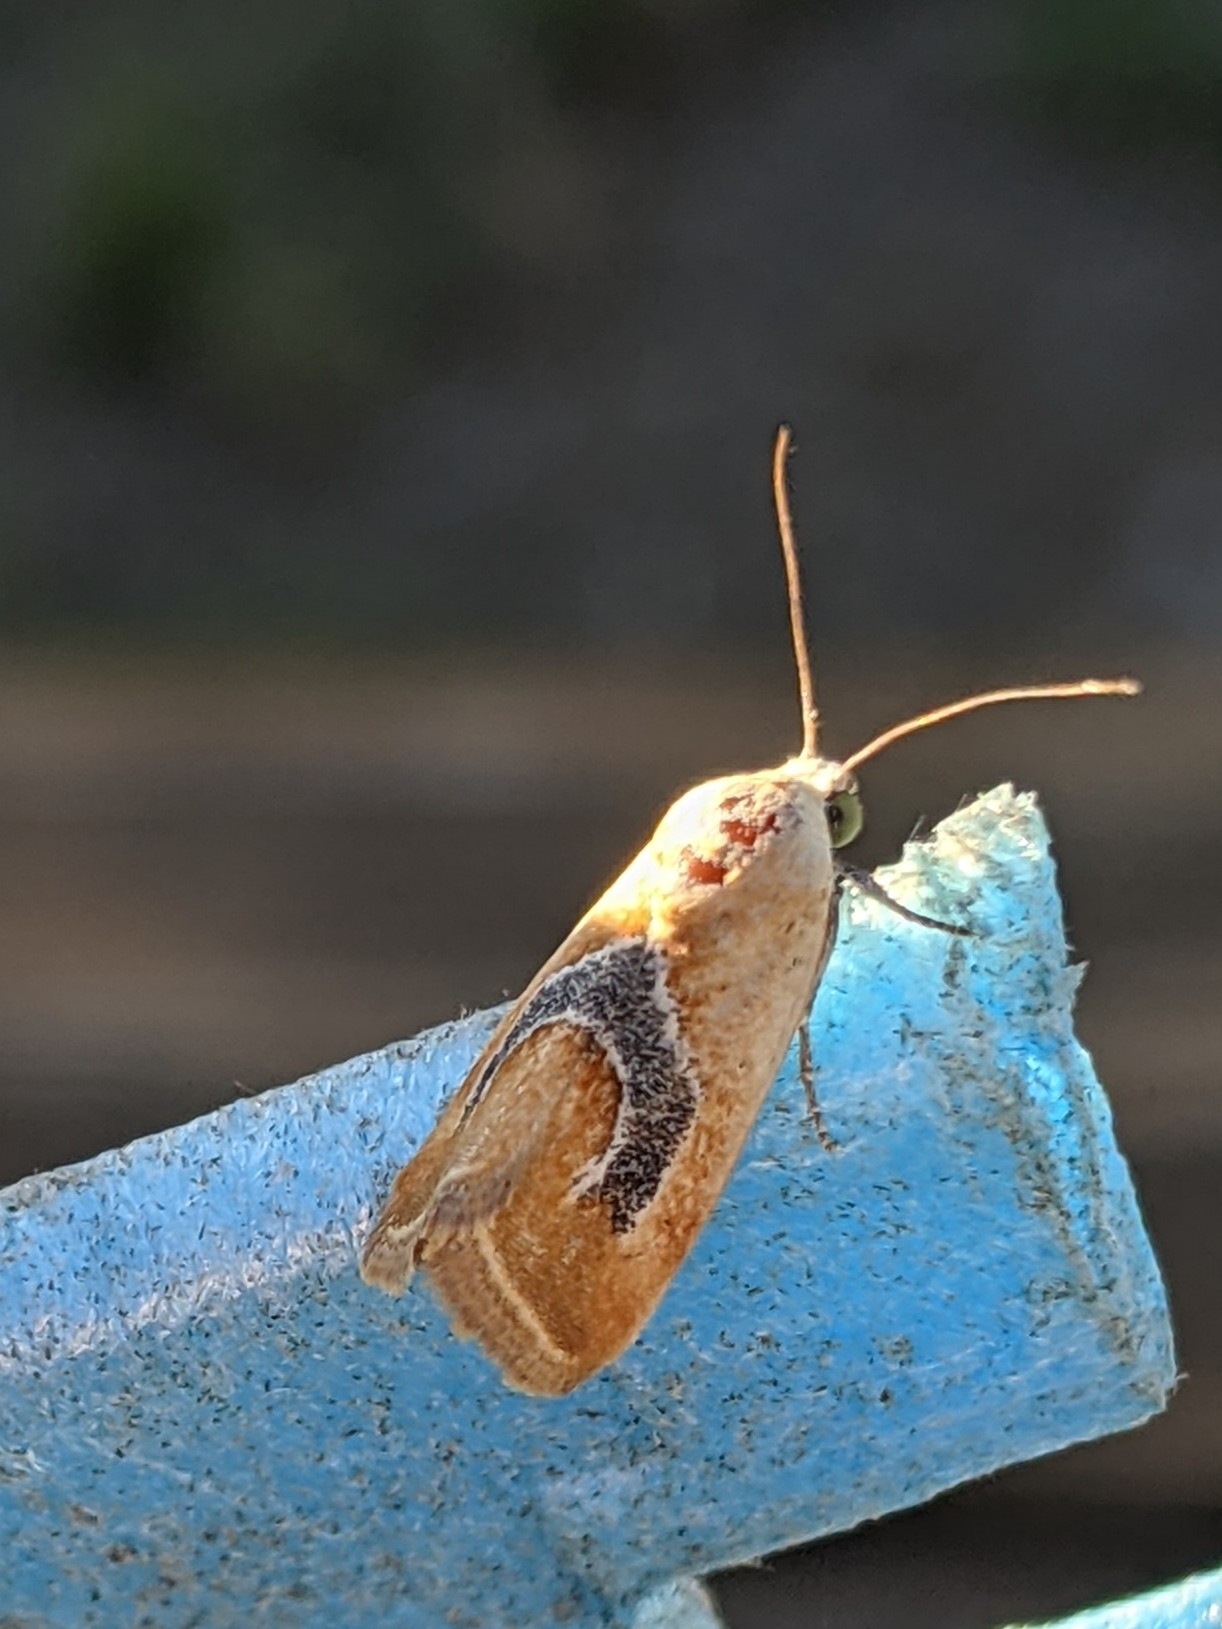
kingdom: Animalia
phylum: Arthropoda
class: Insecta
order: Lepidoptera
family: Noctuidae
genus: Ponometia
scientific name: Ponometia venustula
